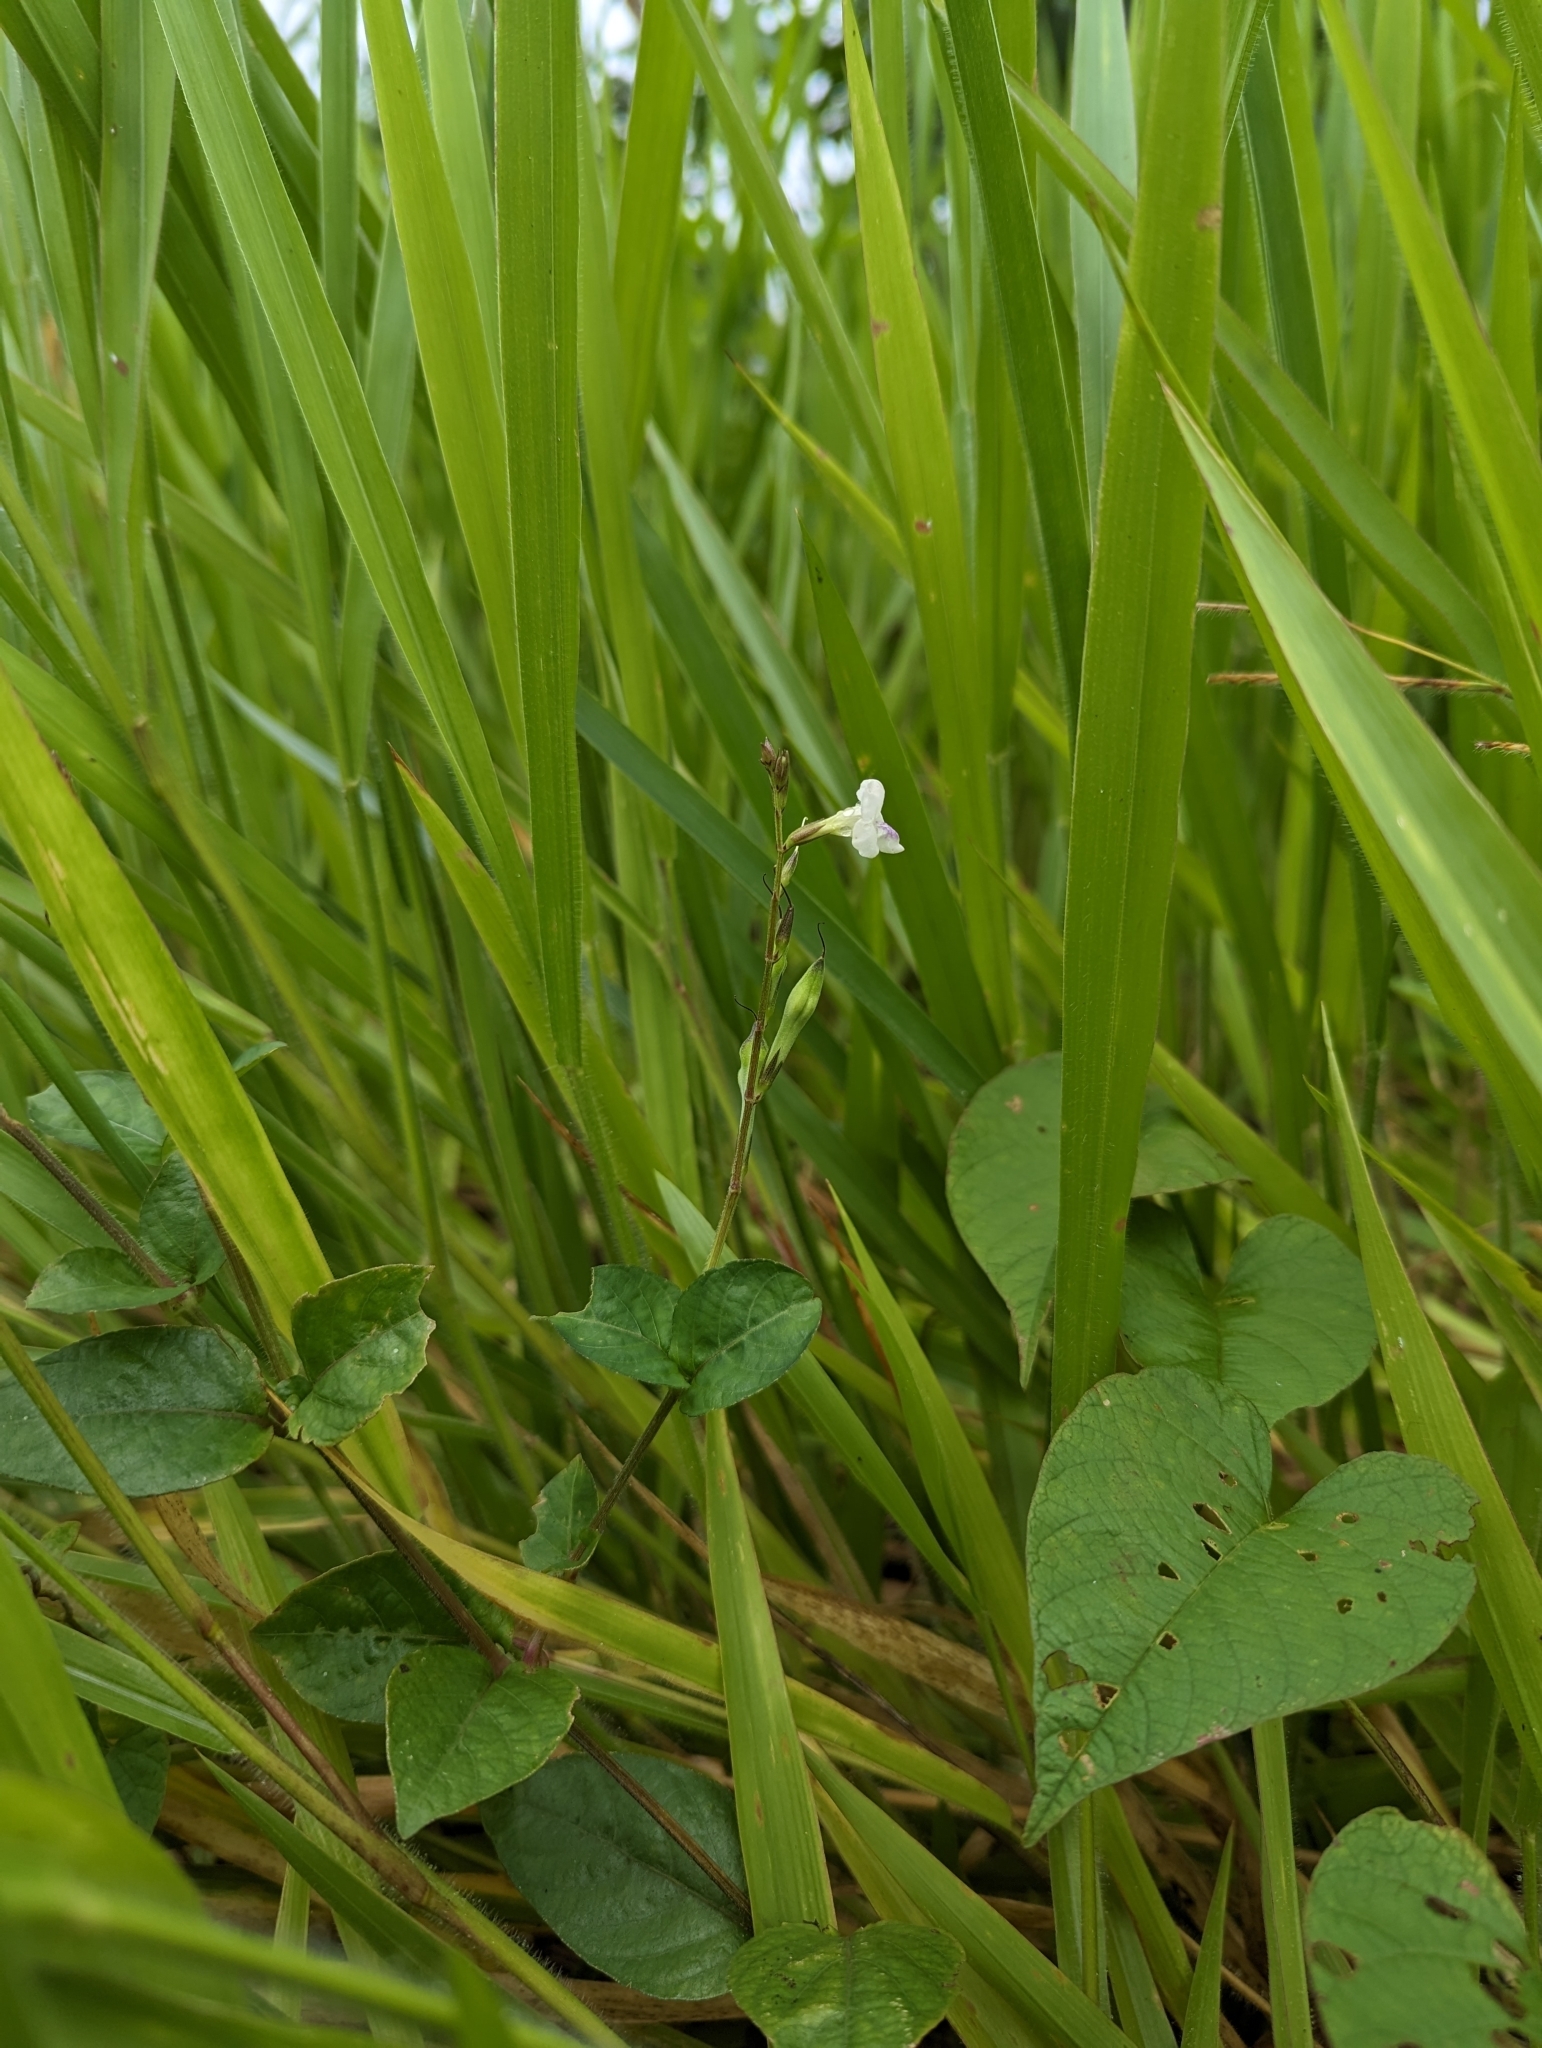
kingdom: Plantae
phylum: Tracheophyta
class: Magnoliopsida
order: Lamiales
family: Acanthaceae
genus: Asystasia
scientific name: Asystasia intrusa
